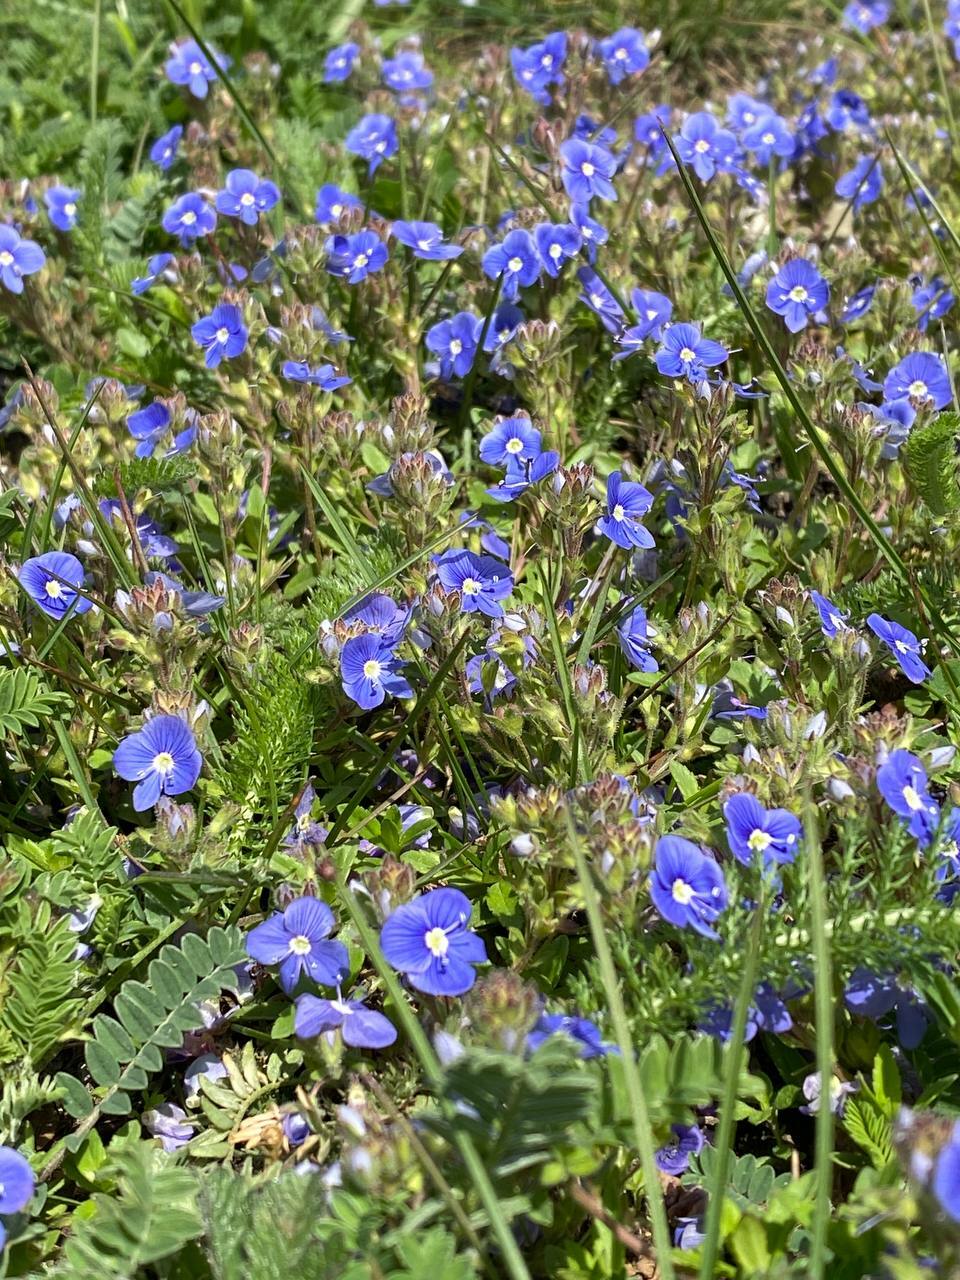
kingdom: Plantae
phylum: Tracheophyta
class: Magnoliopsida
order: Lamiales
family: Plantaginaceae
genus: Veronica
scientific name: Veronica chamaedrys
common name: Germander speedwell
